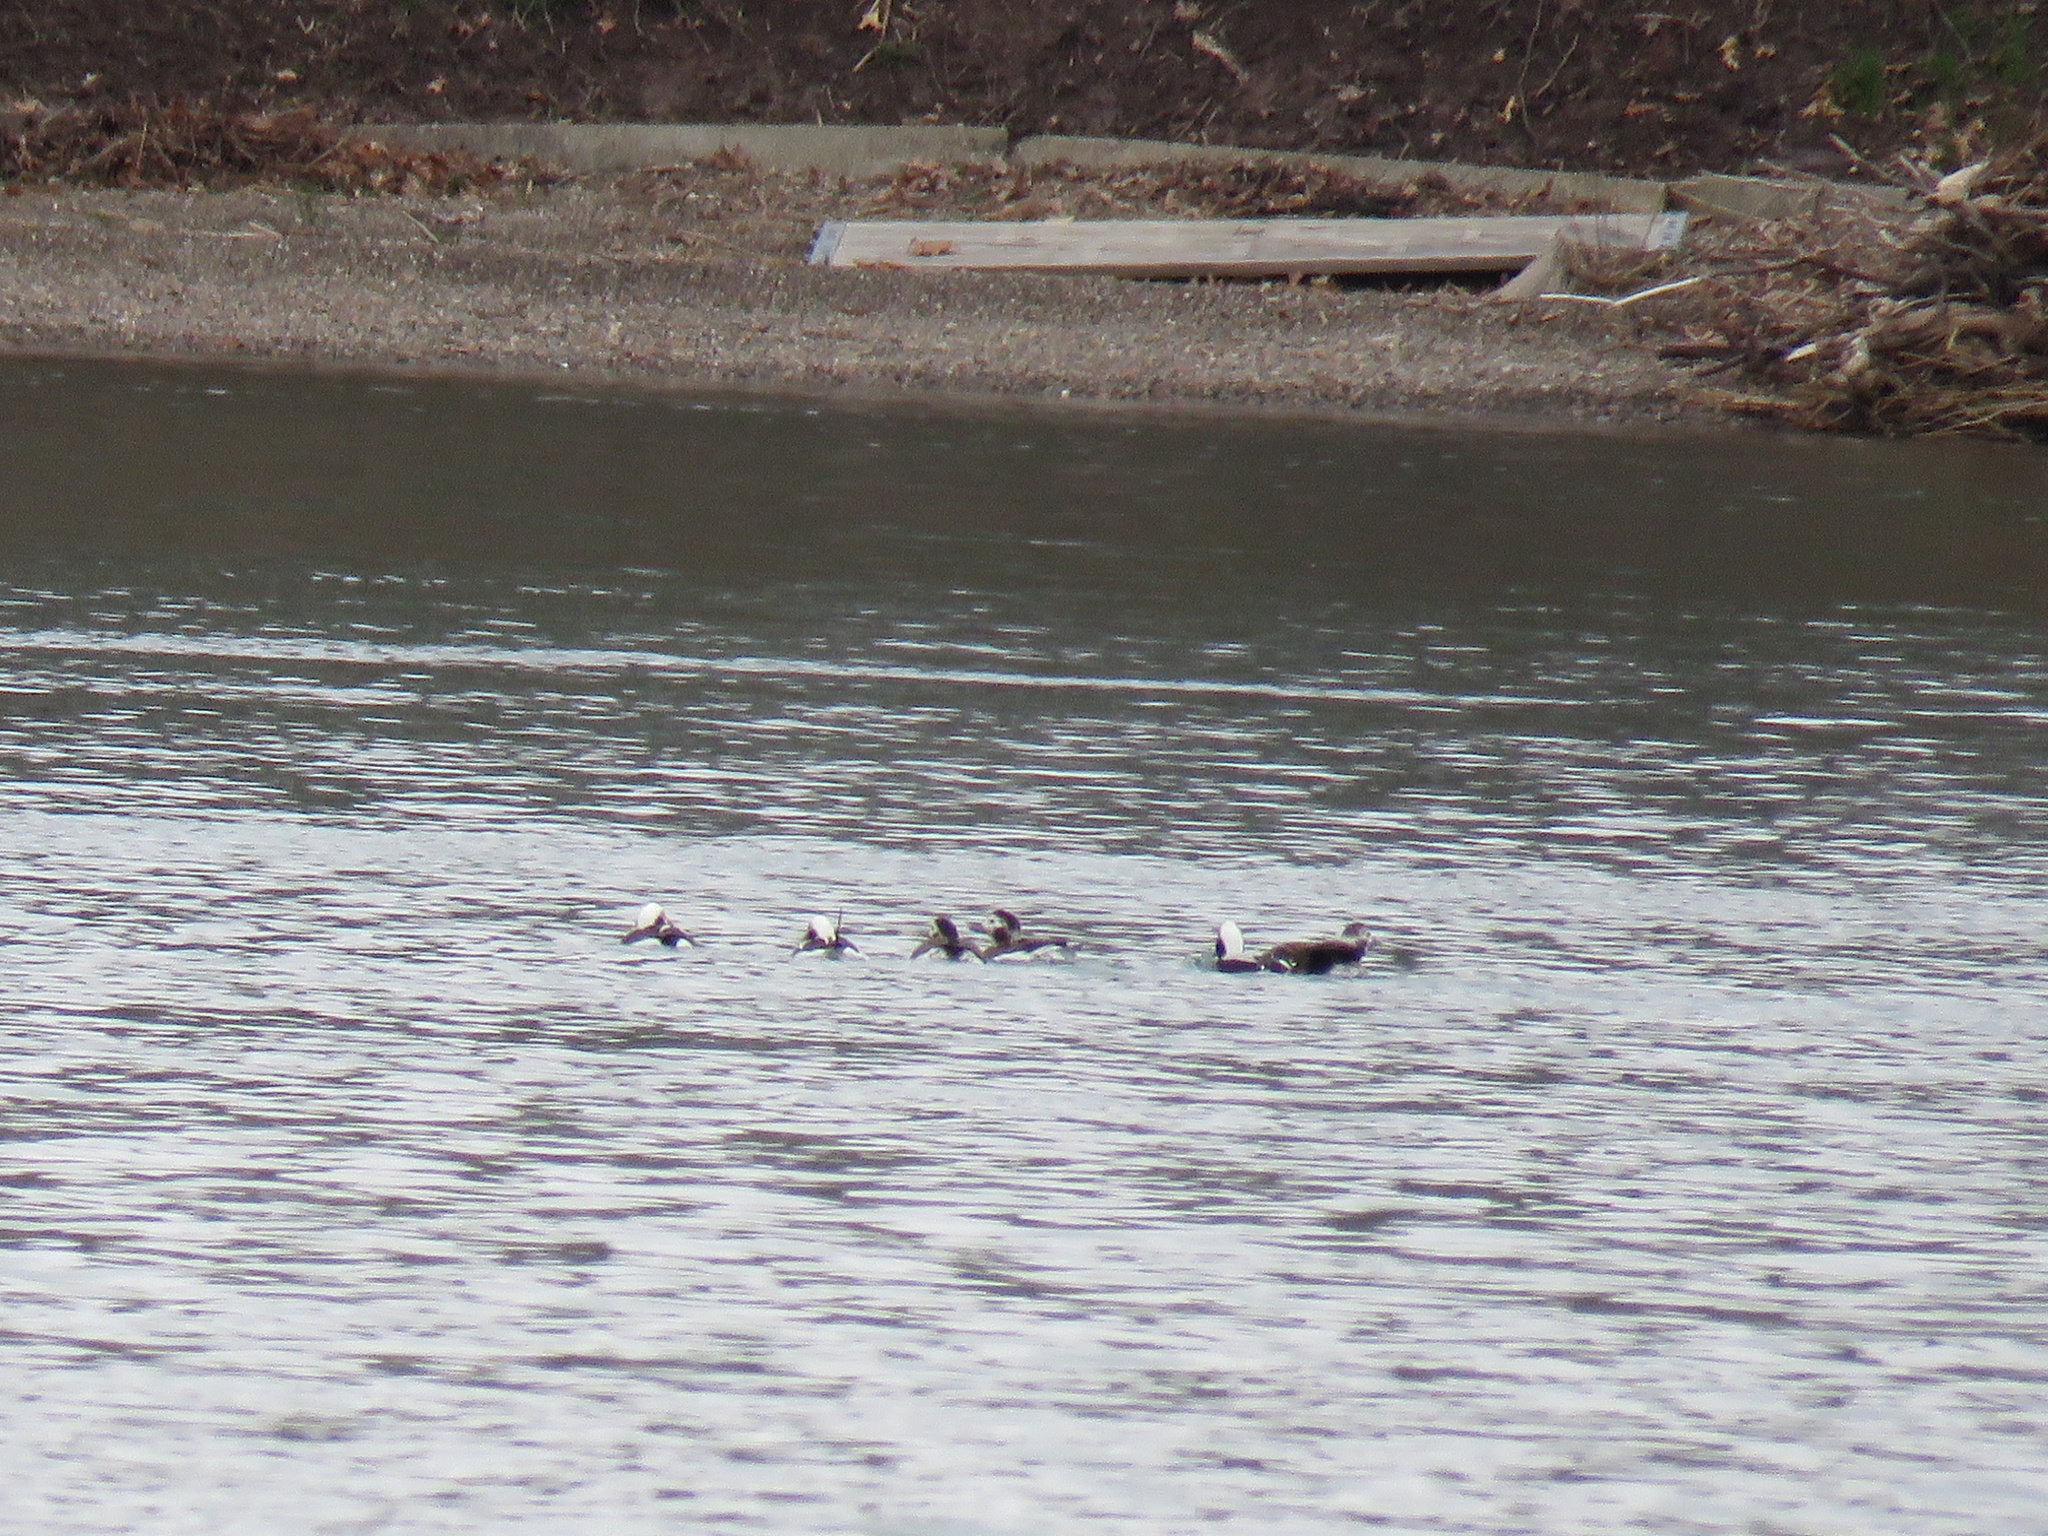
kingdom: Animalia
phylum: Chordata
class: Aves
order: Anseriformes
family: Anatidae
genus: Clangula
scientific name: Clangula hyemalis
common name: Long-tailed duck
